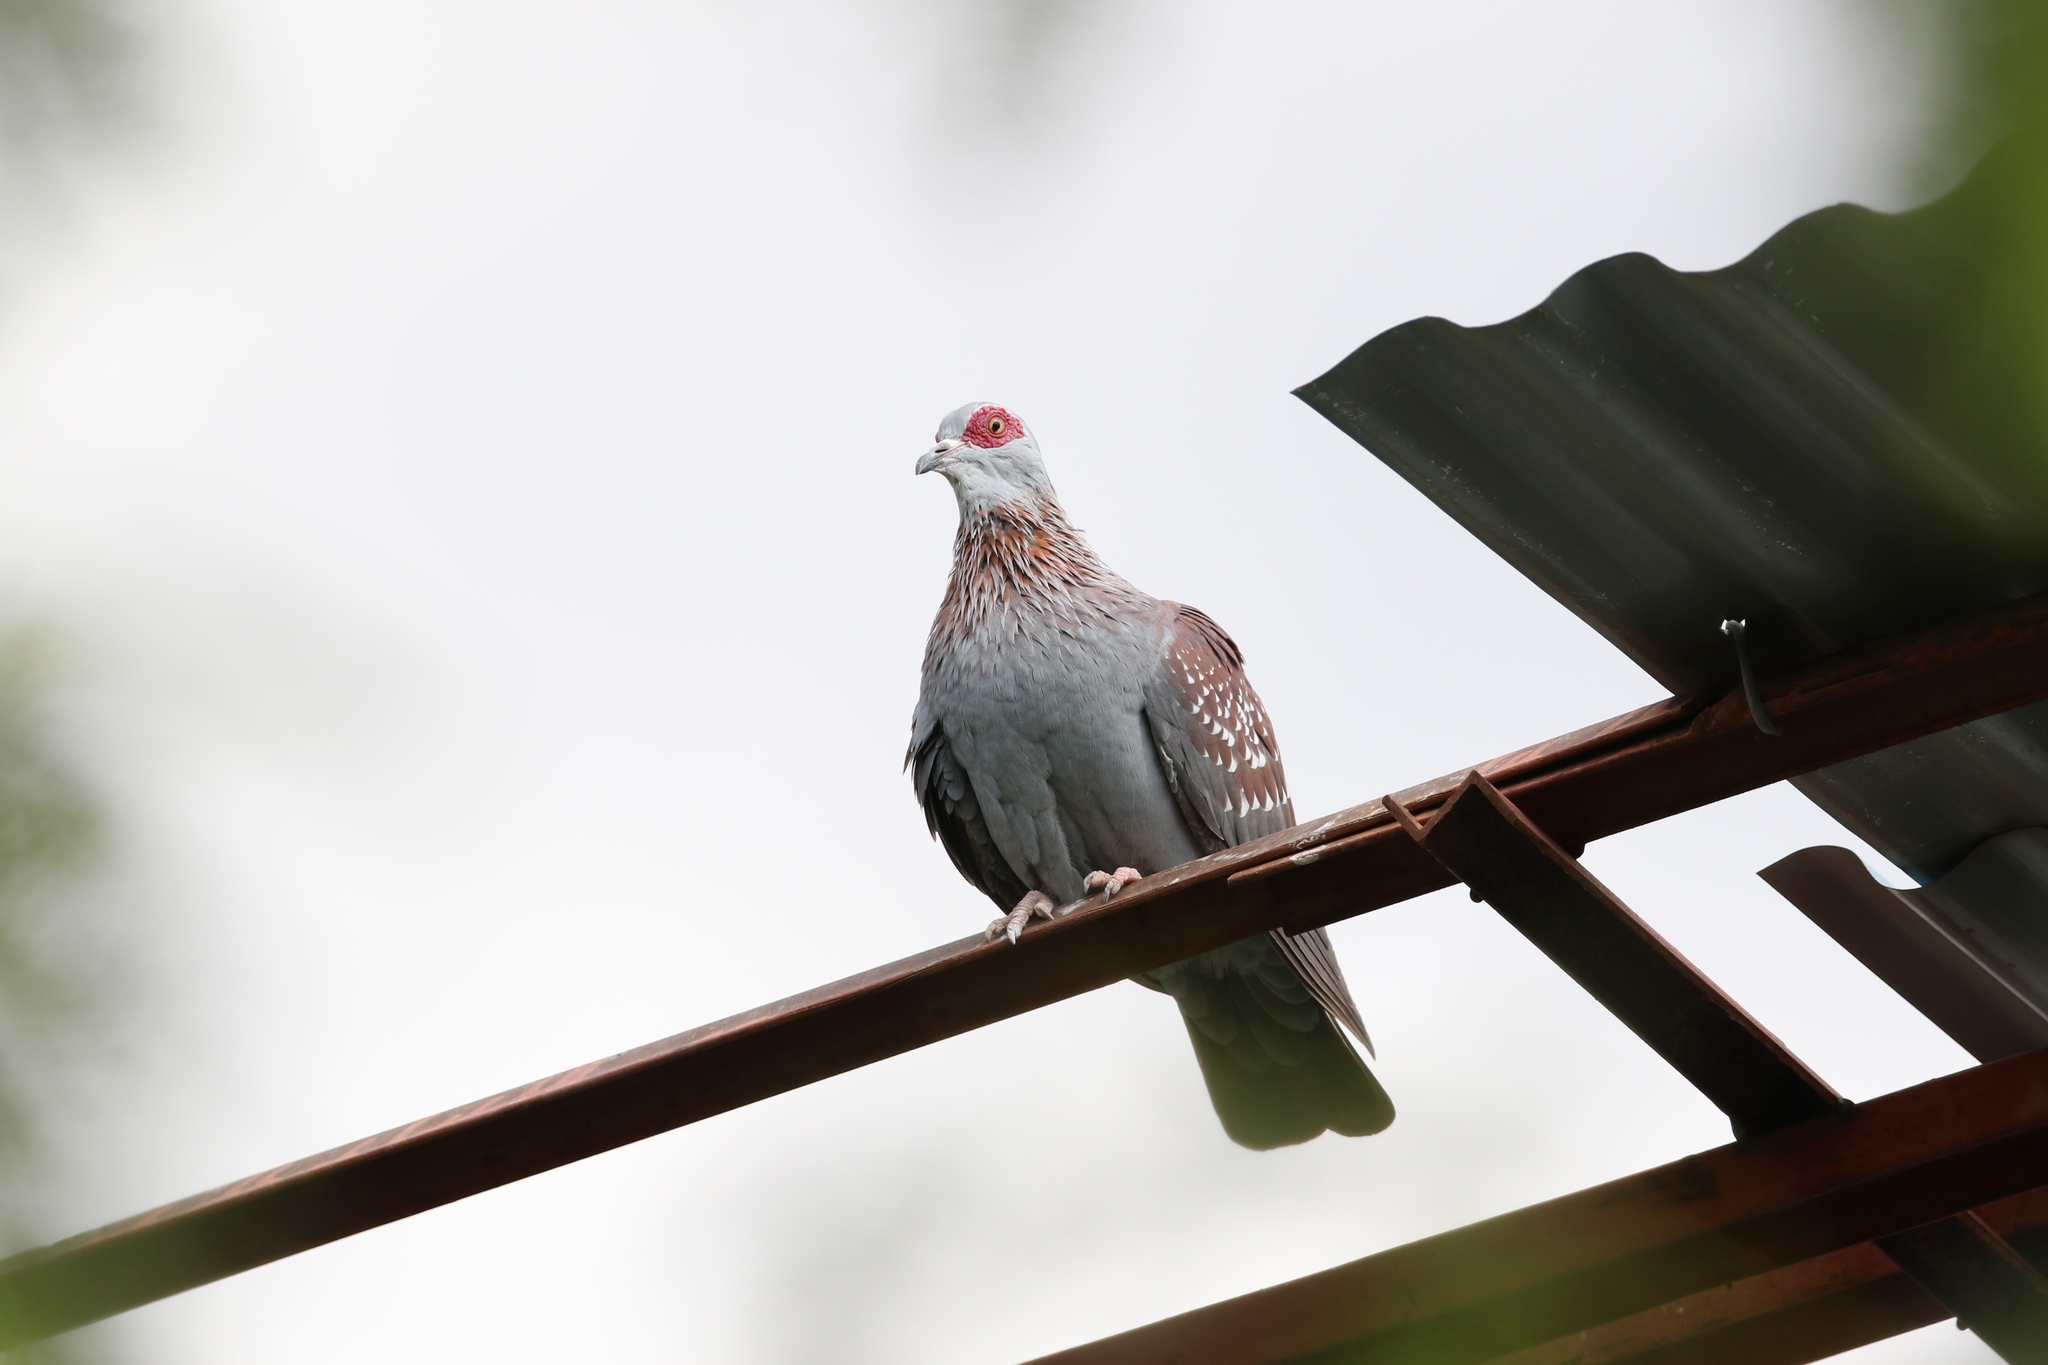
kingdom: Animalia
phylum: Chordata
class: Aves
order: Columbiformes
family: Columbidae
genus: Columba
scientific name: Columba guinea
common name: Speckled pigeon
